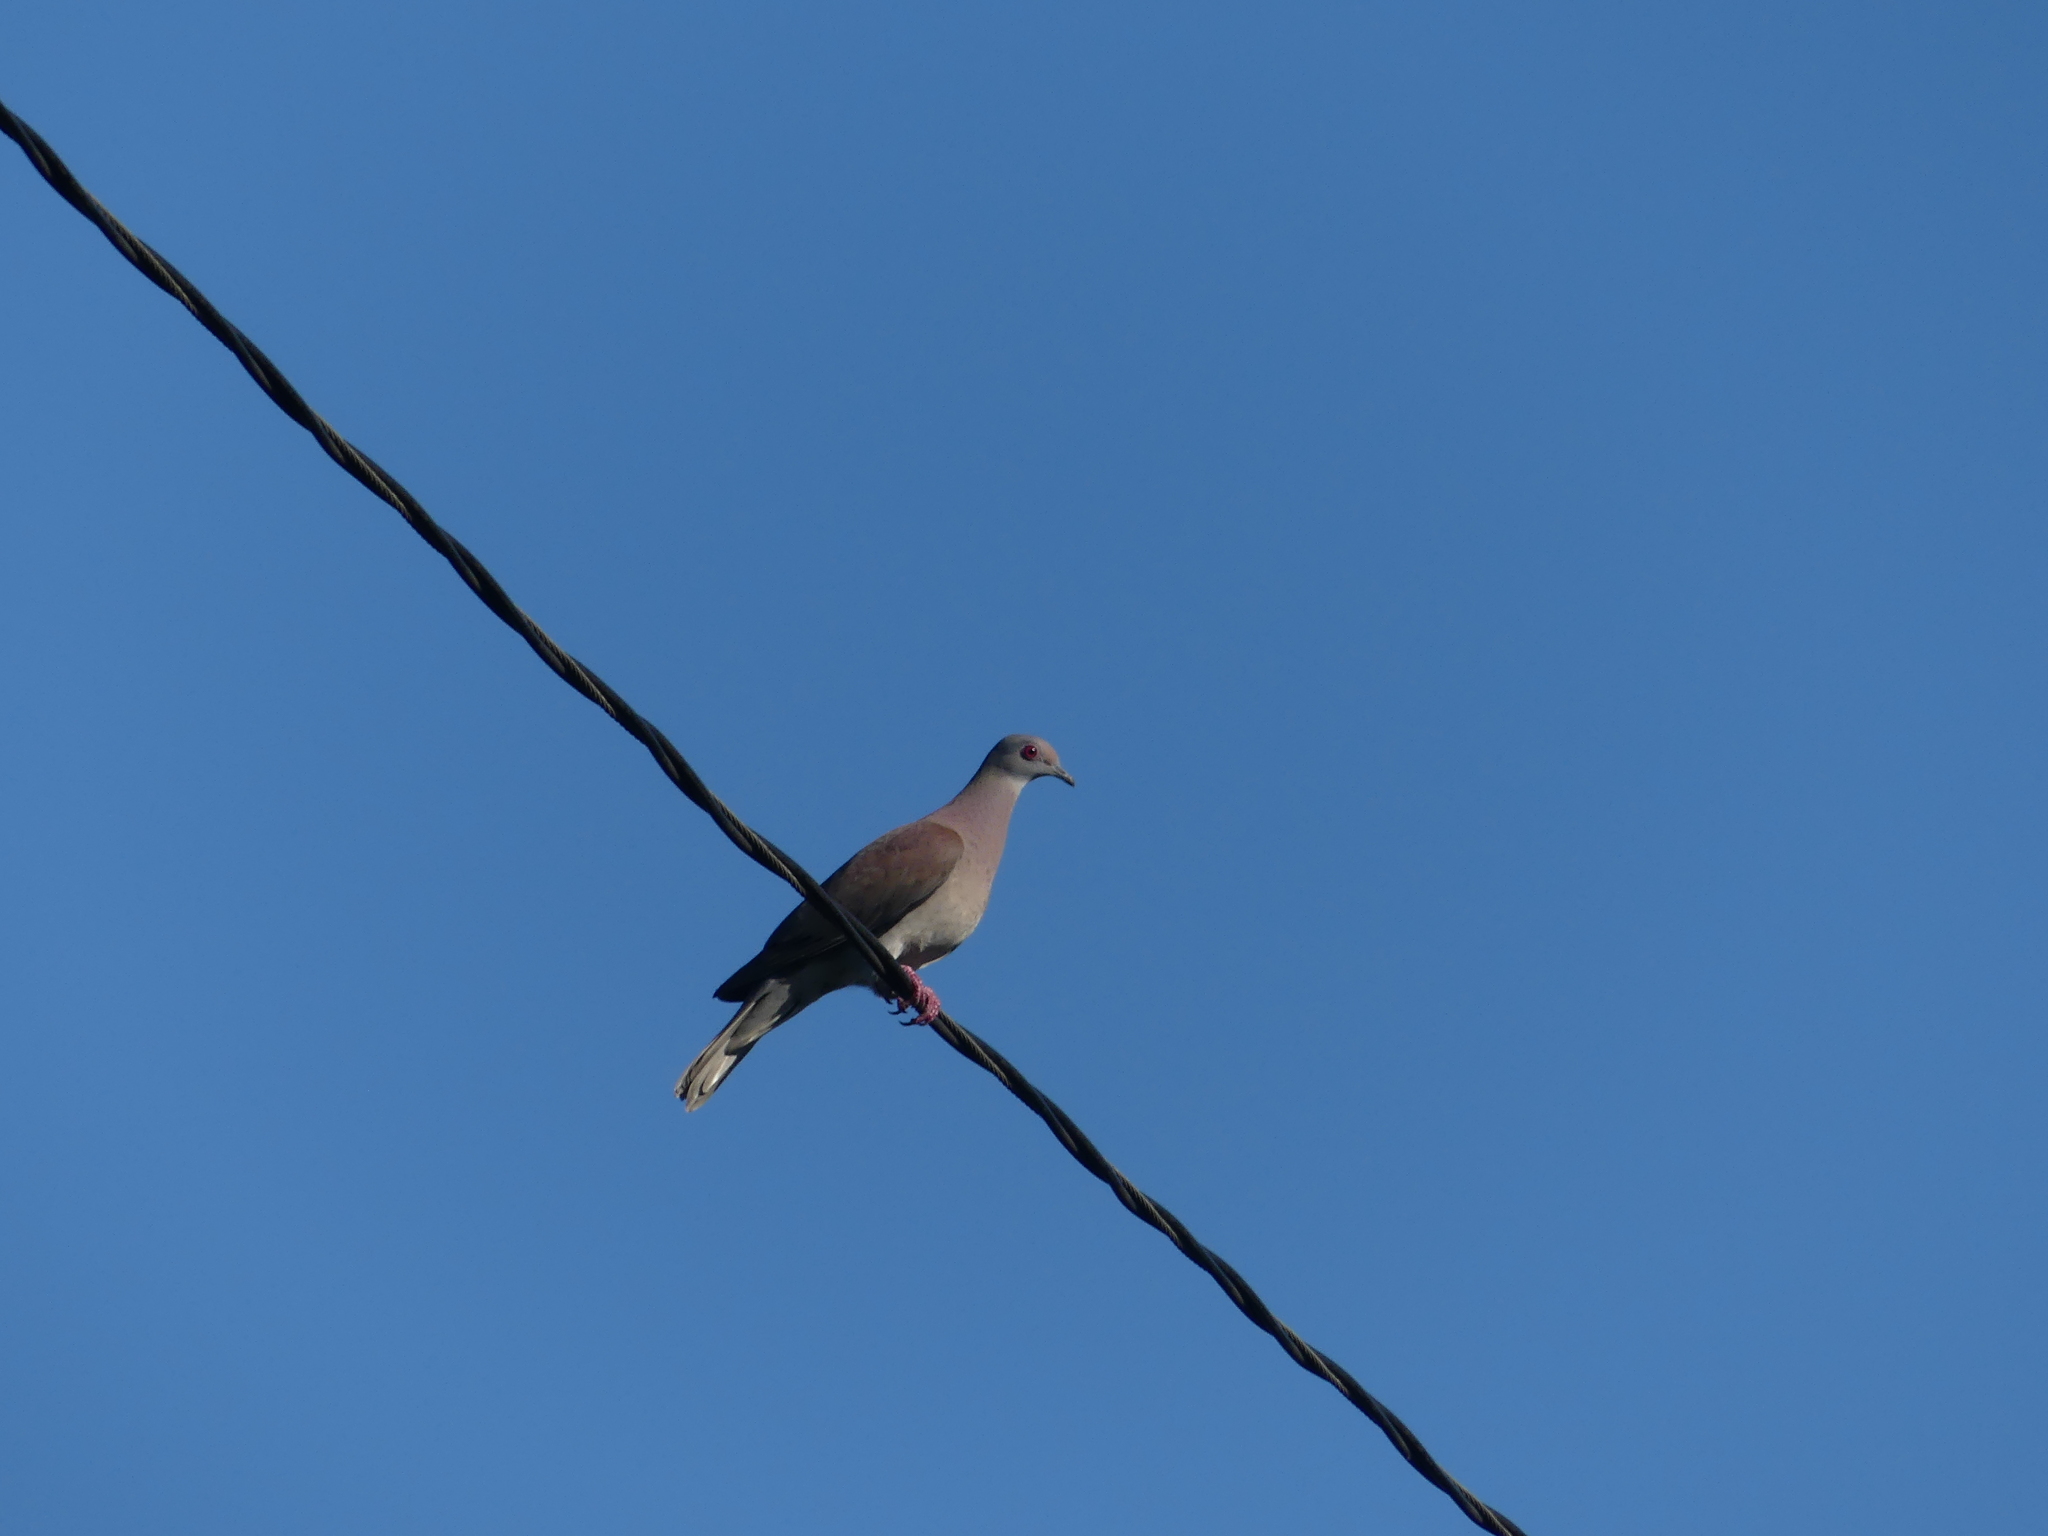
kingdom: Animalia
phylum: Chordata
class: Aves
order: Columbiformes
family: Columbidae
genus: Patagioenas
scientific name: Patagioenas cayennensis
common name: Pale-vented pigeon
